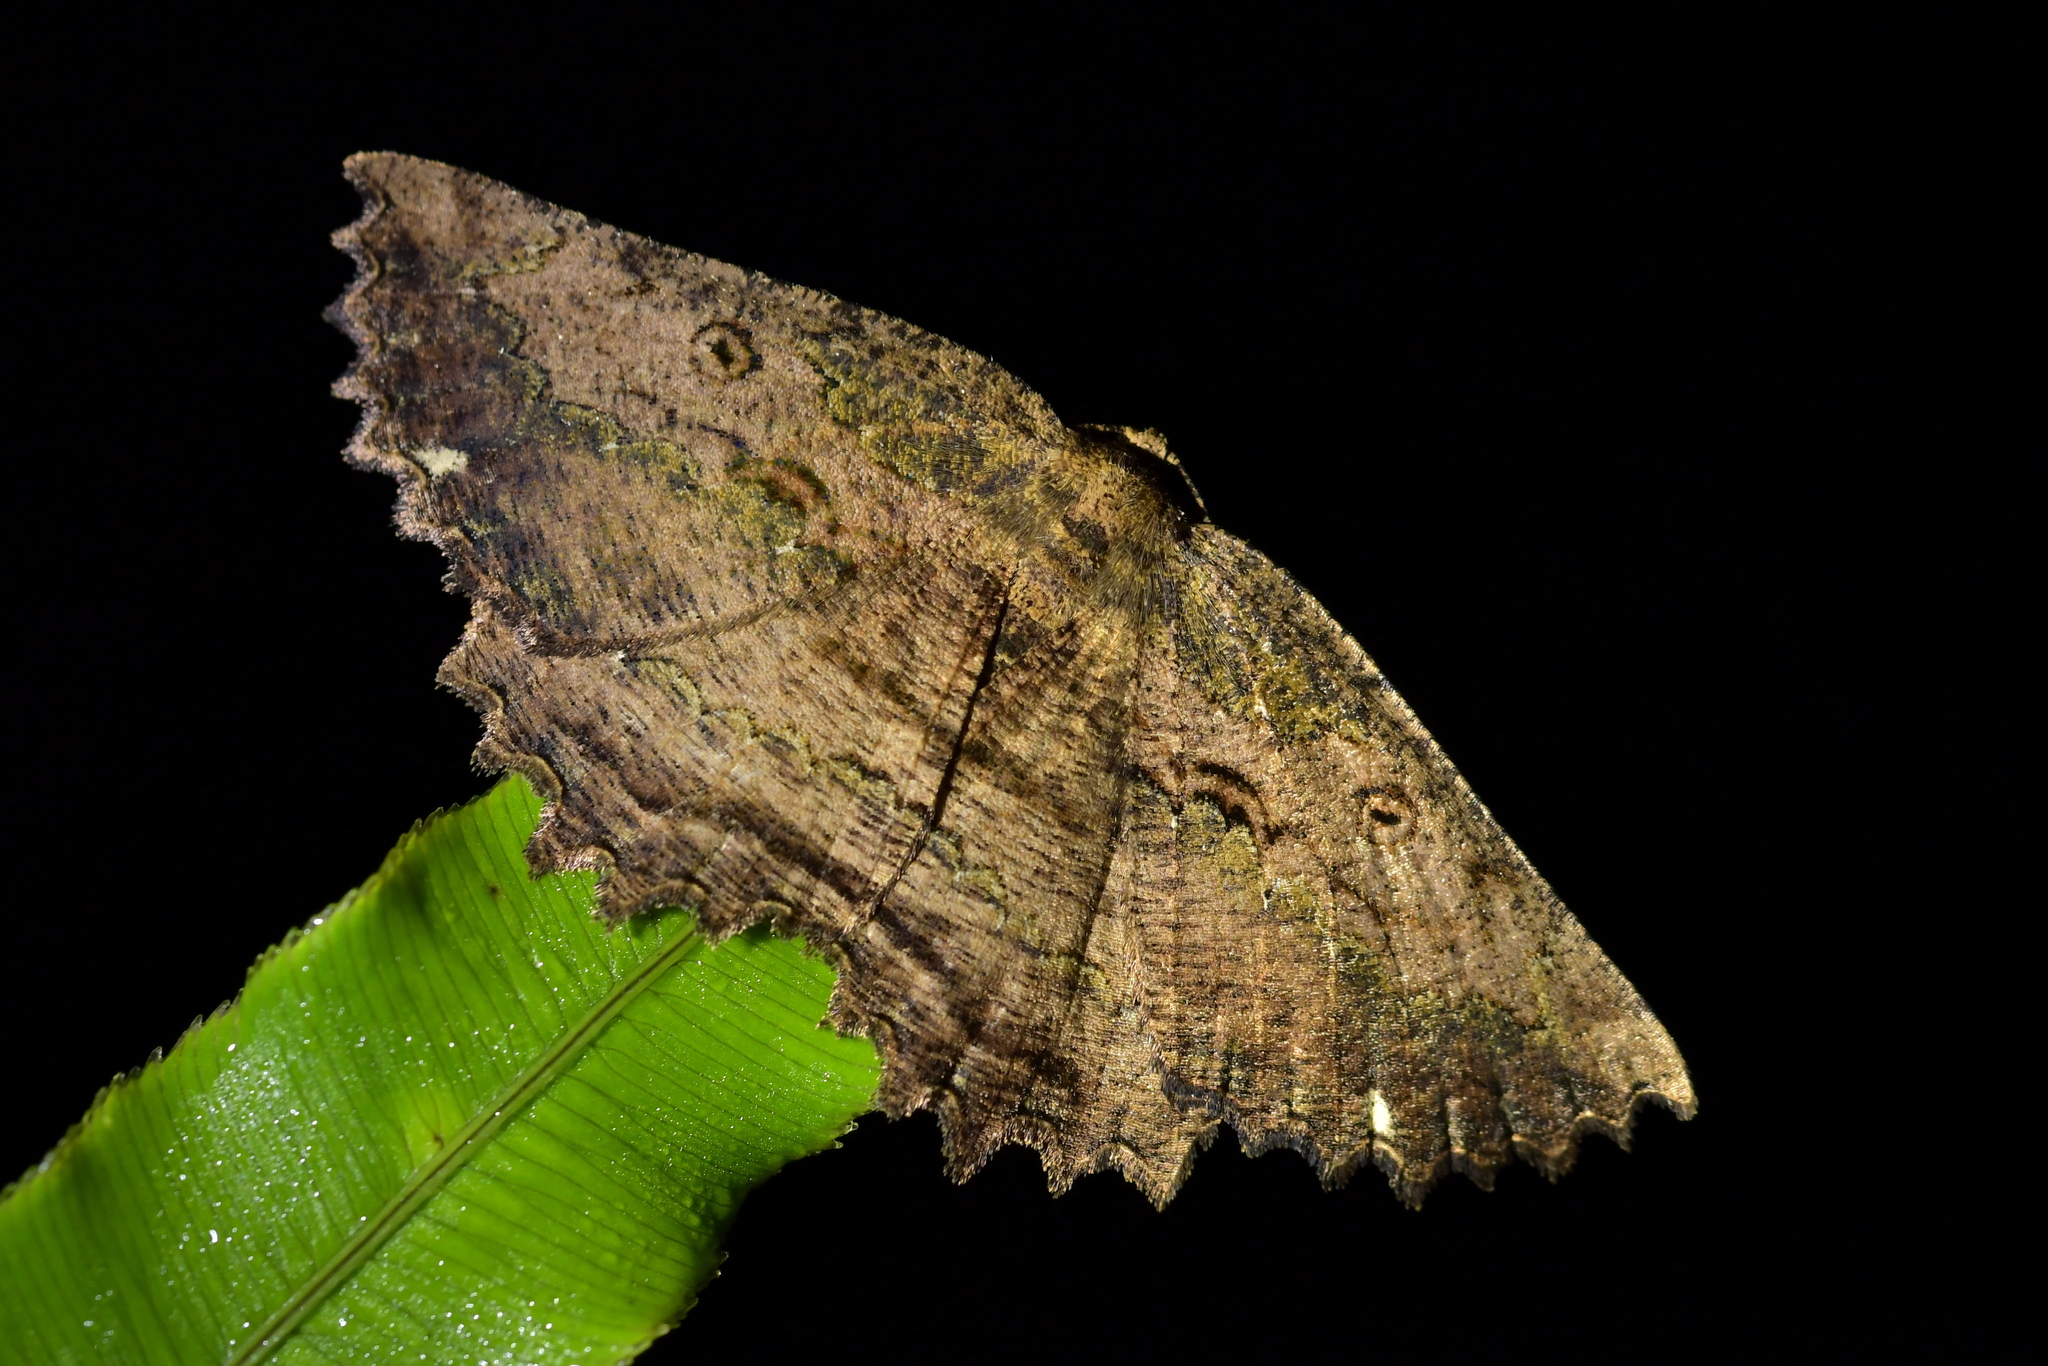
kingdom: Animalia
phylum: Arthropoda
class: Insecta
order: Lepidoptera
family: Geometridae
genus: Gellonia
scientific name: Gellonia pannularia
